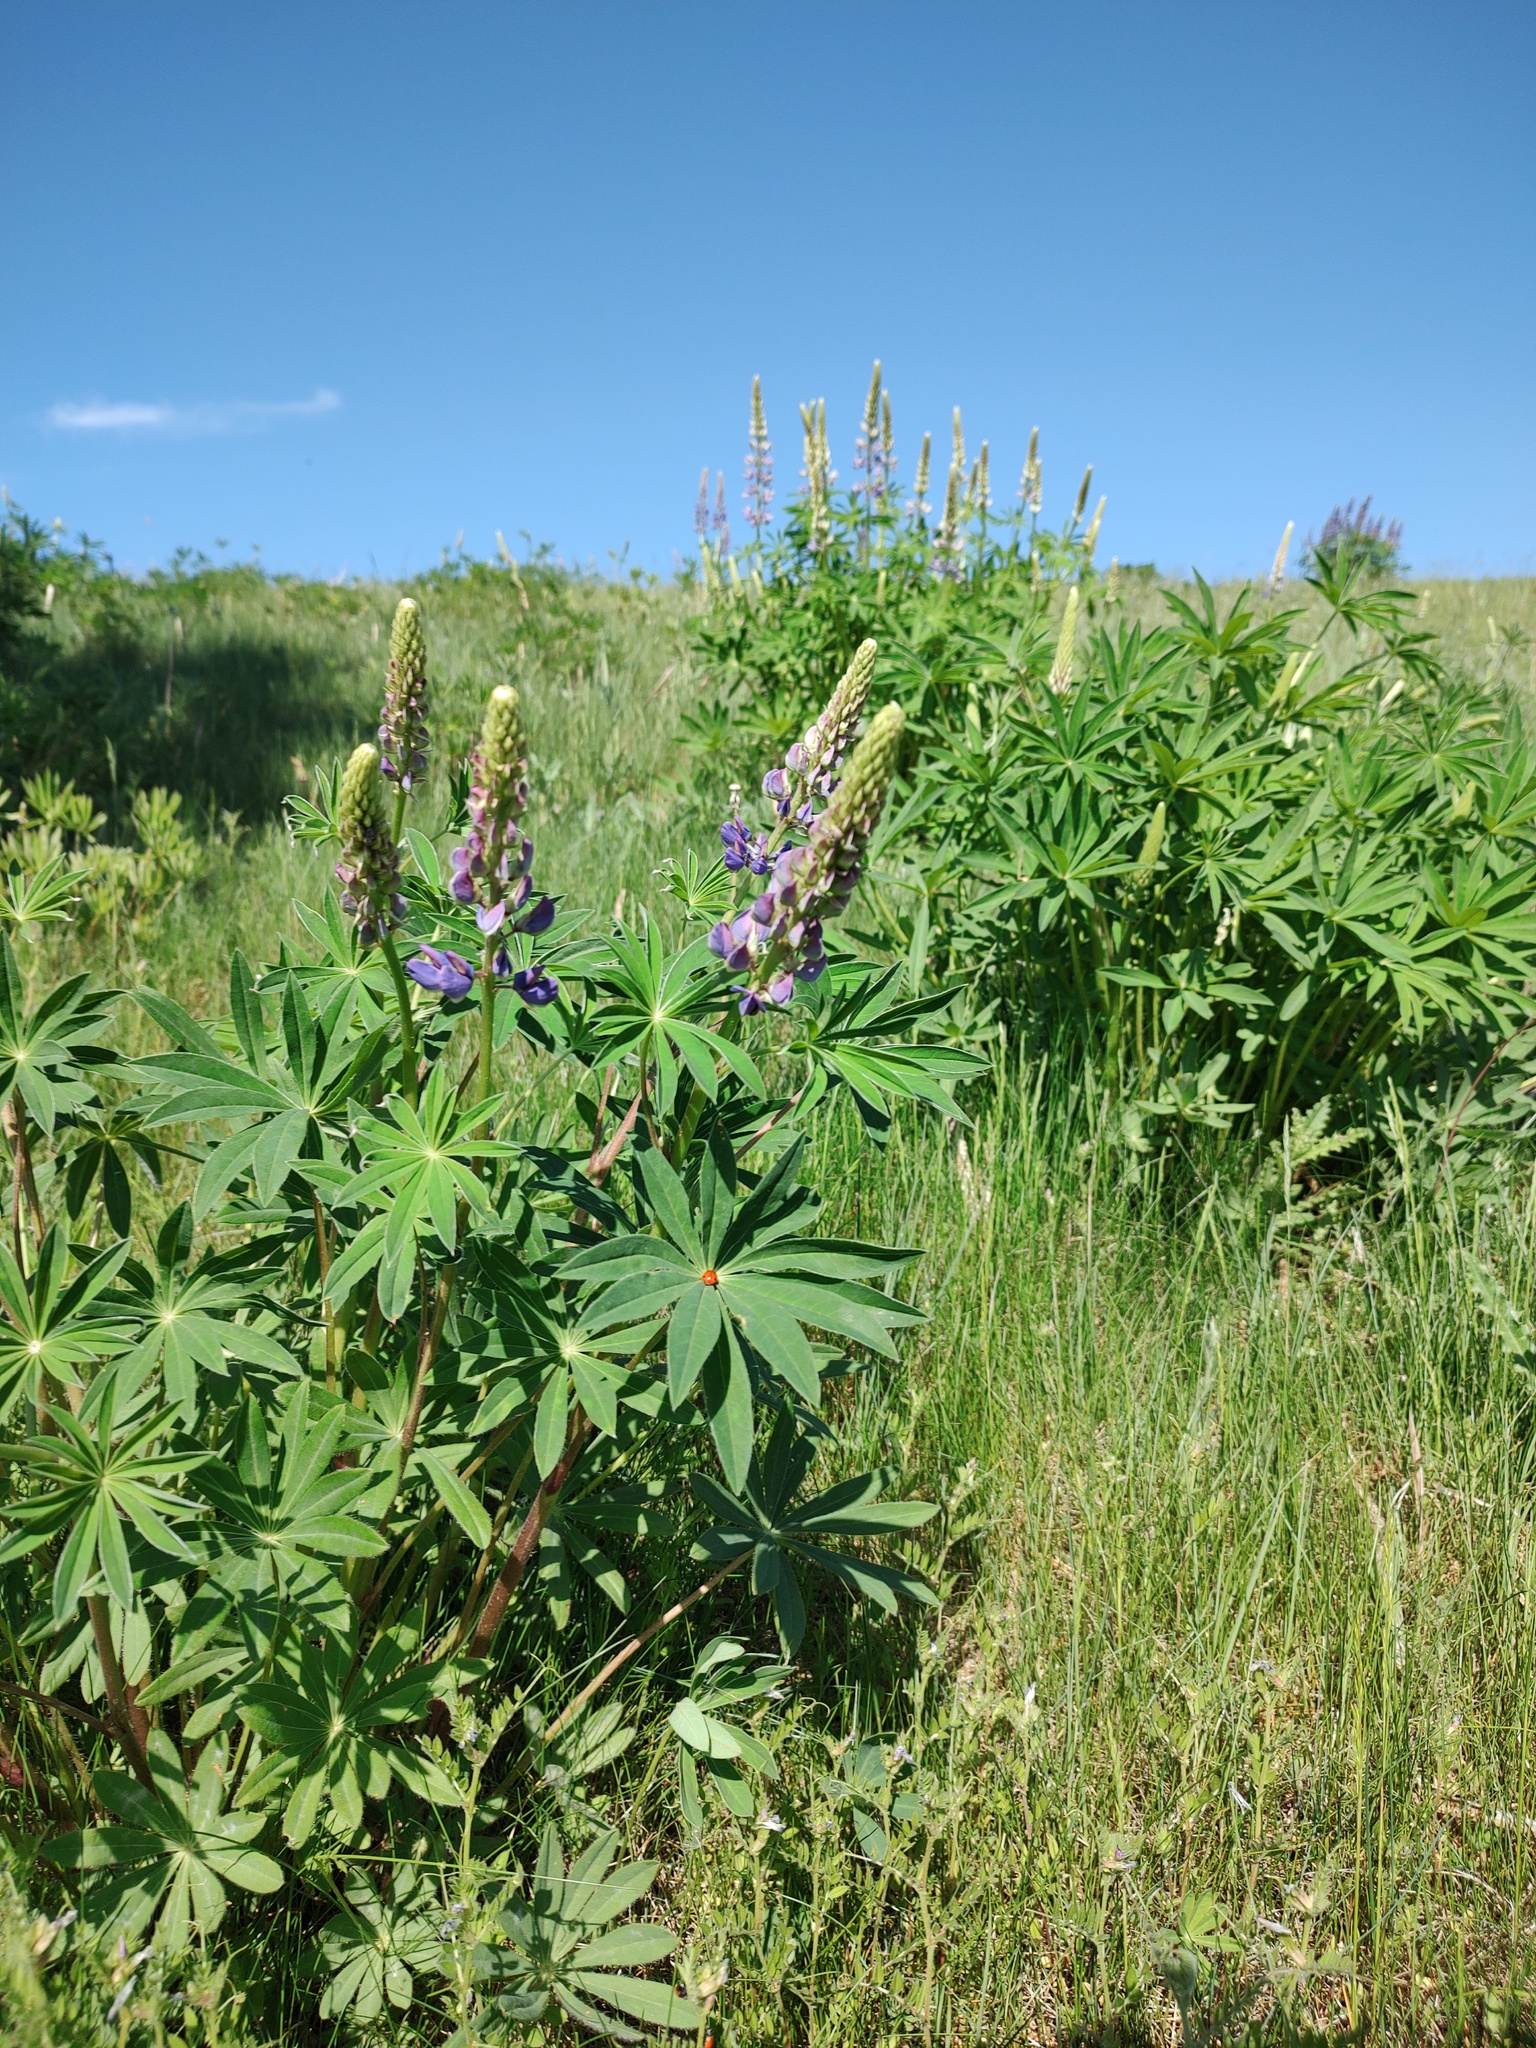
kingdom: Plantae
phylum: Tracheophyta
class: Magnoliopsida
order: Fabales
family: Fabaceae
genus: Lupinus
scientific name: Lupinus polyphyllus
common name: Garden lupin
